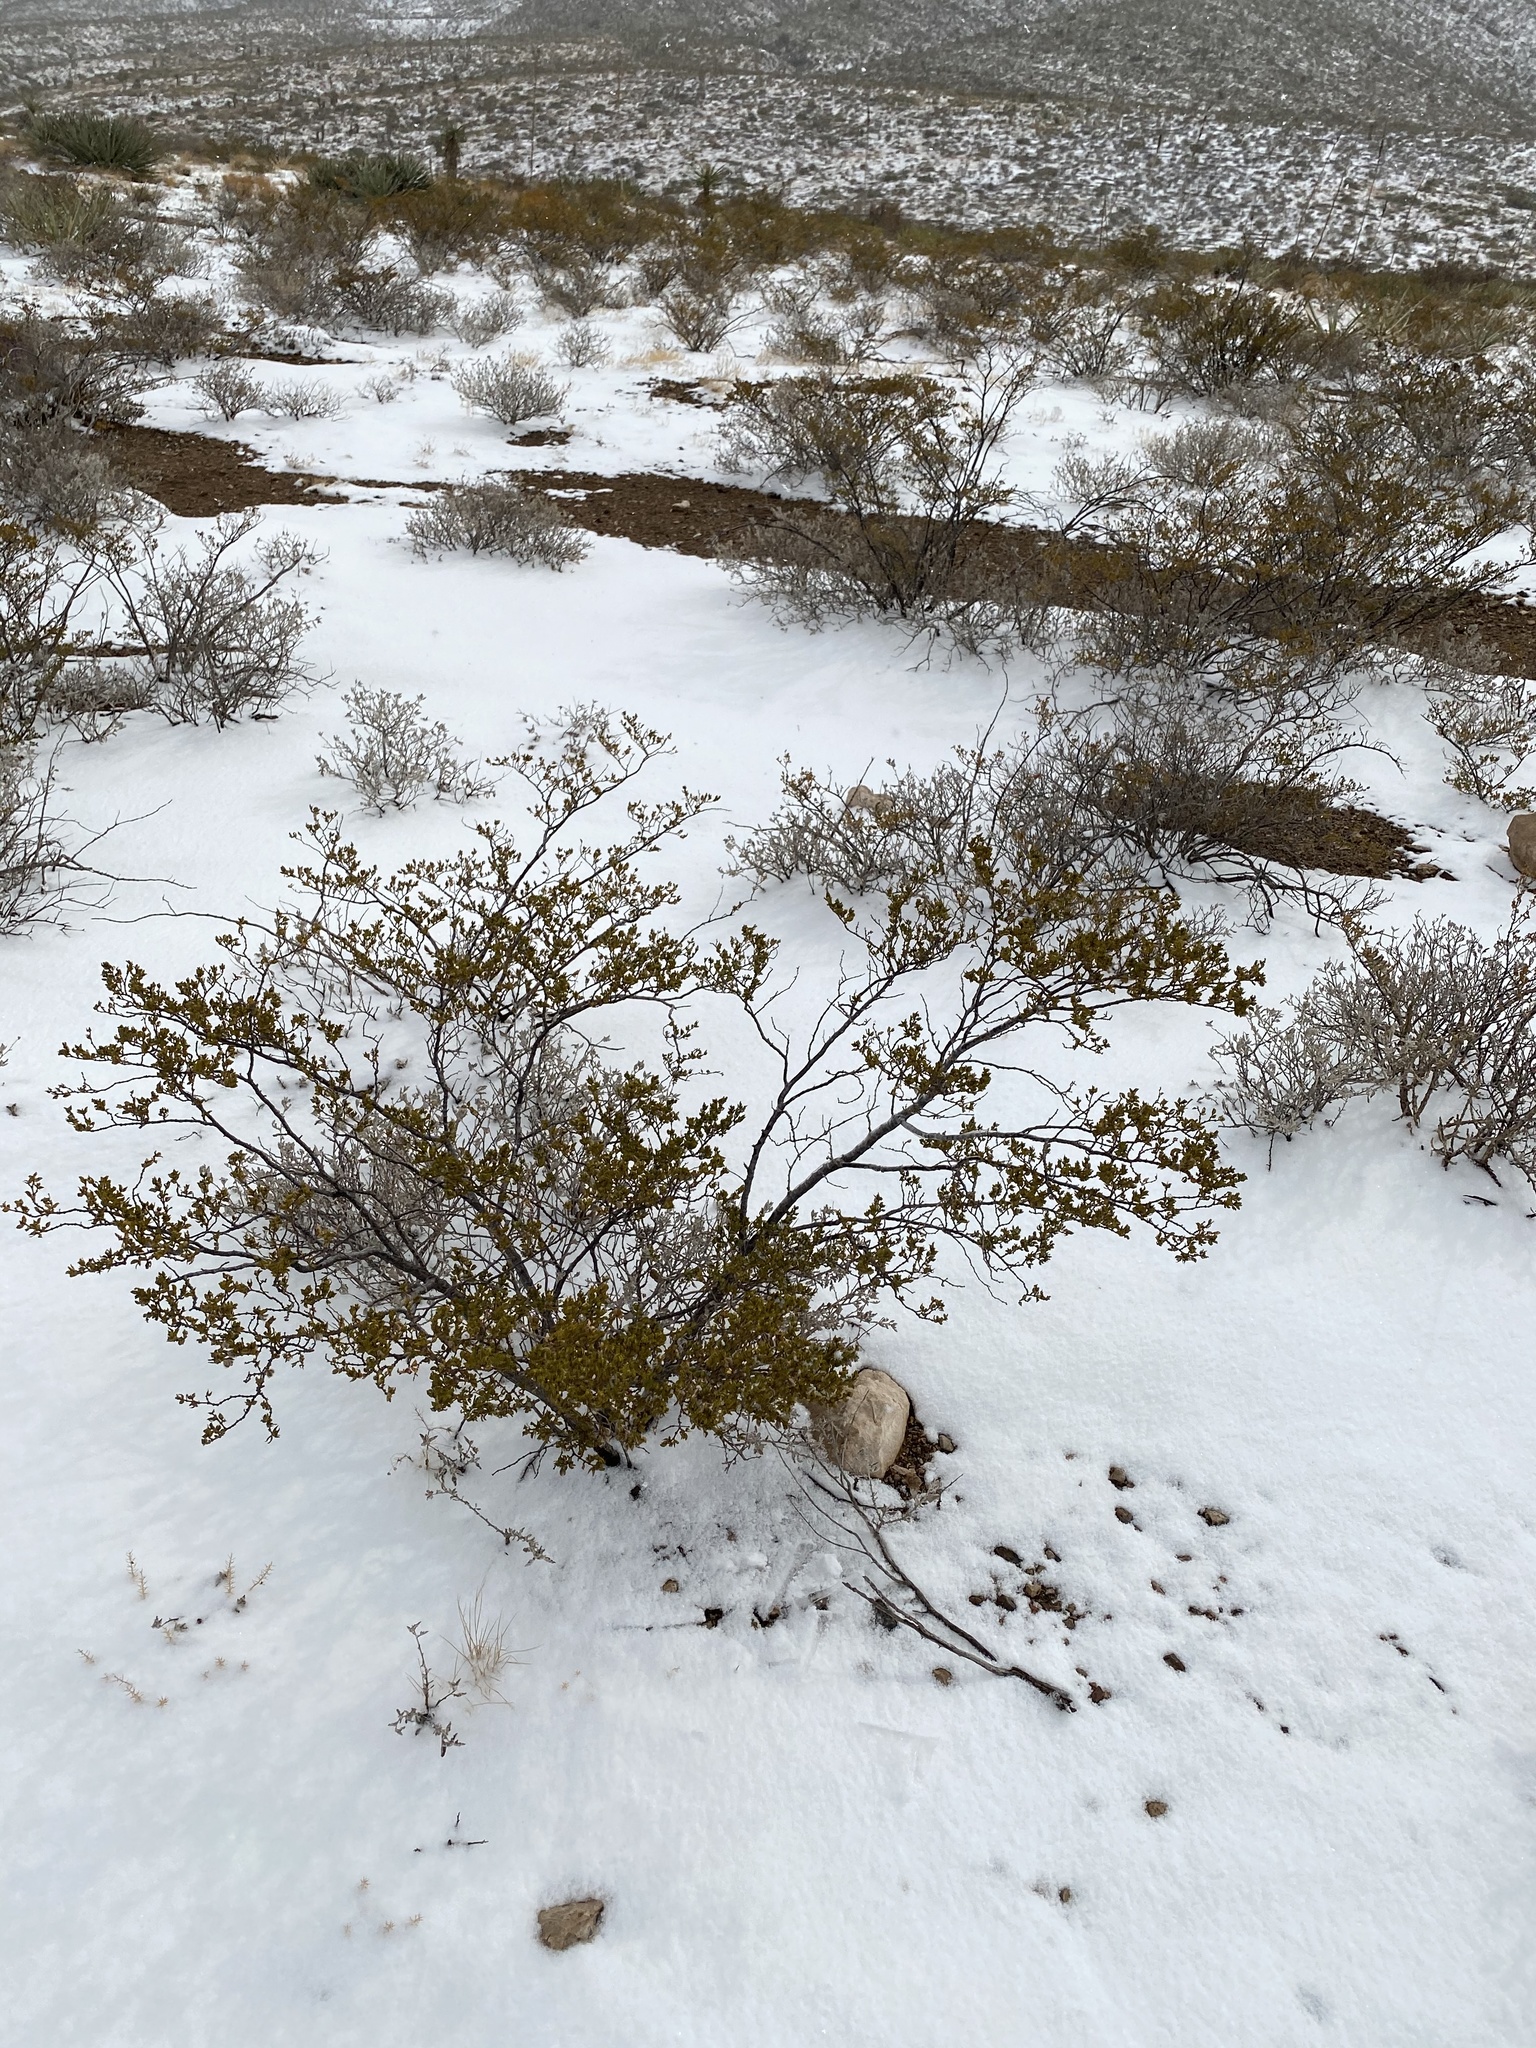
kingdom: Plantae
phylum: Tracheophyta
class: Magnoliopsida
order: Zygophyllales
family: Zygophyllaceae
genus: Larrea
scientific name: Larrea tridentata
